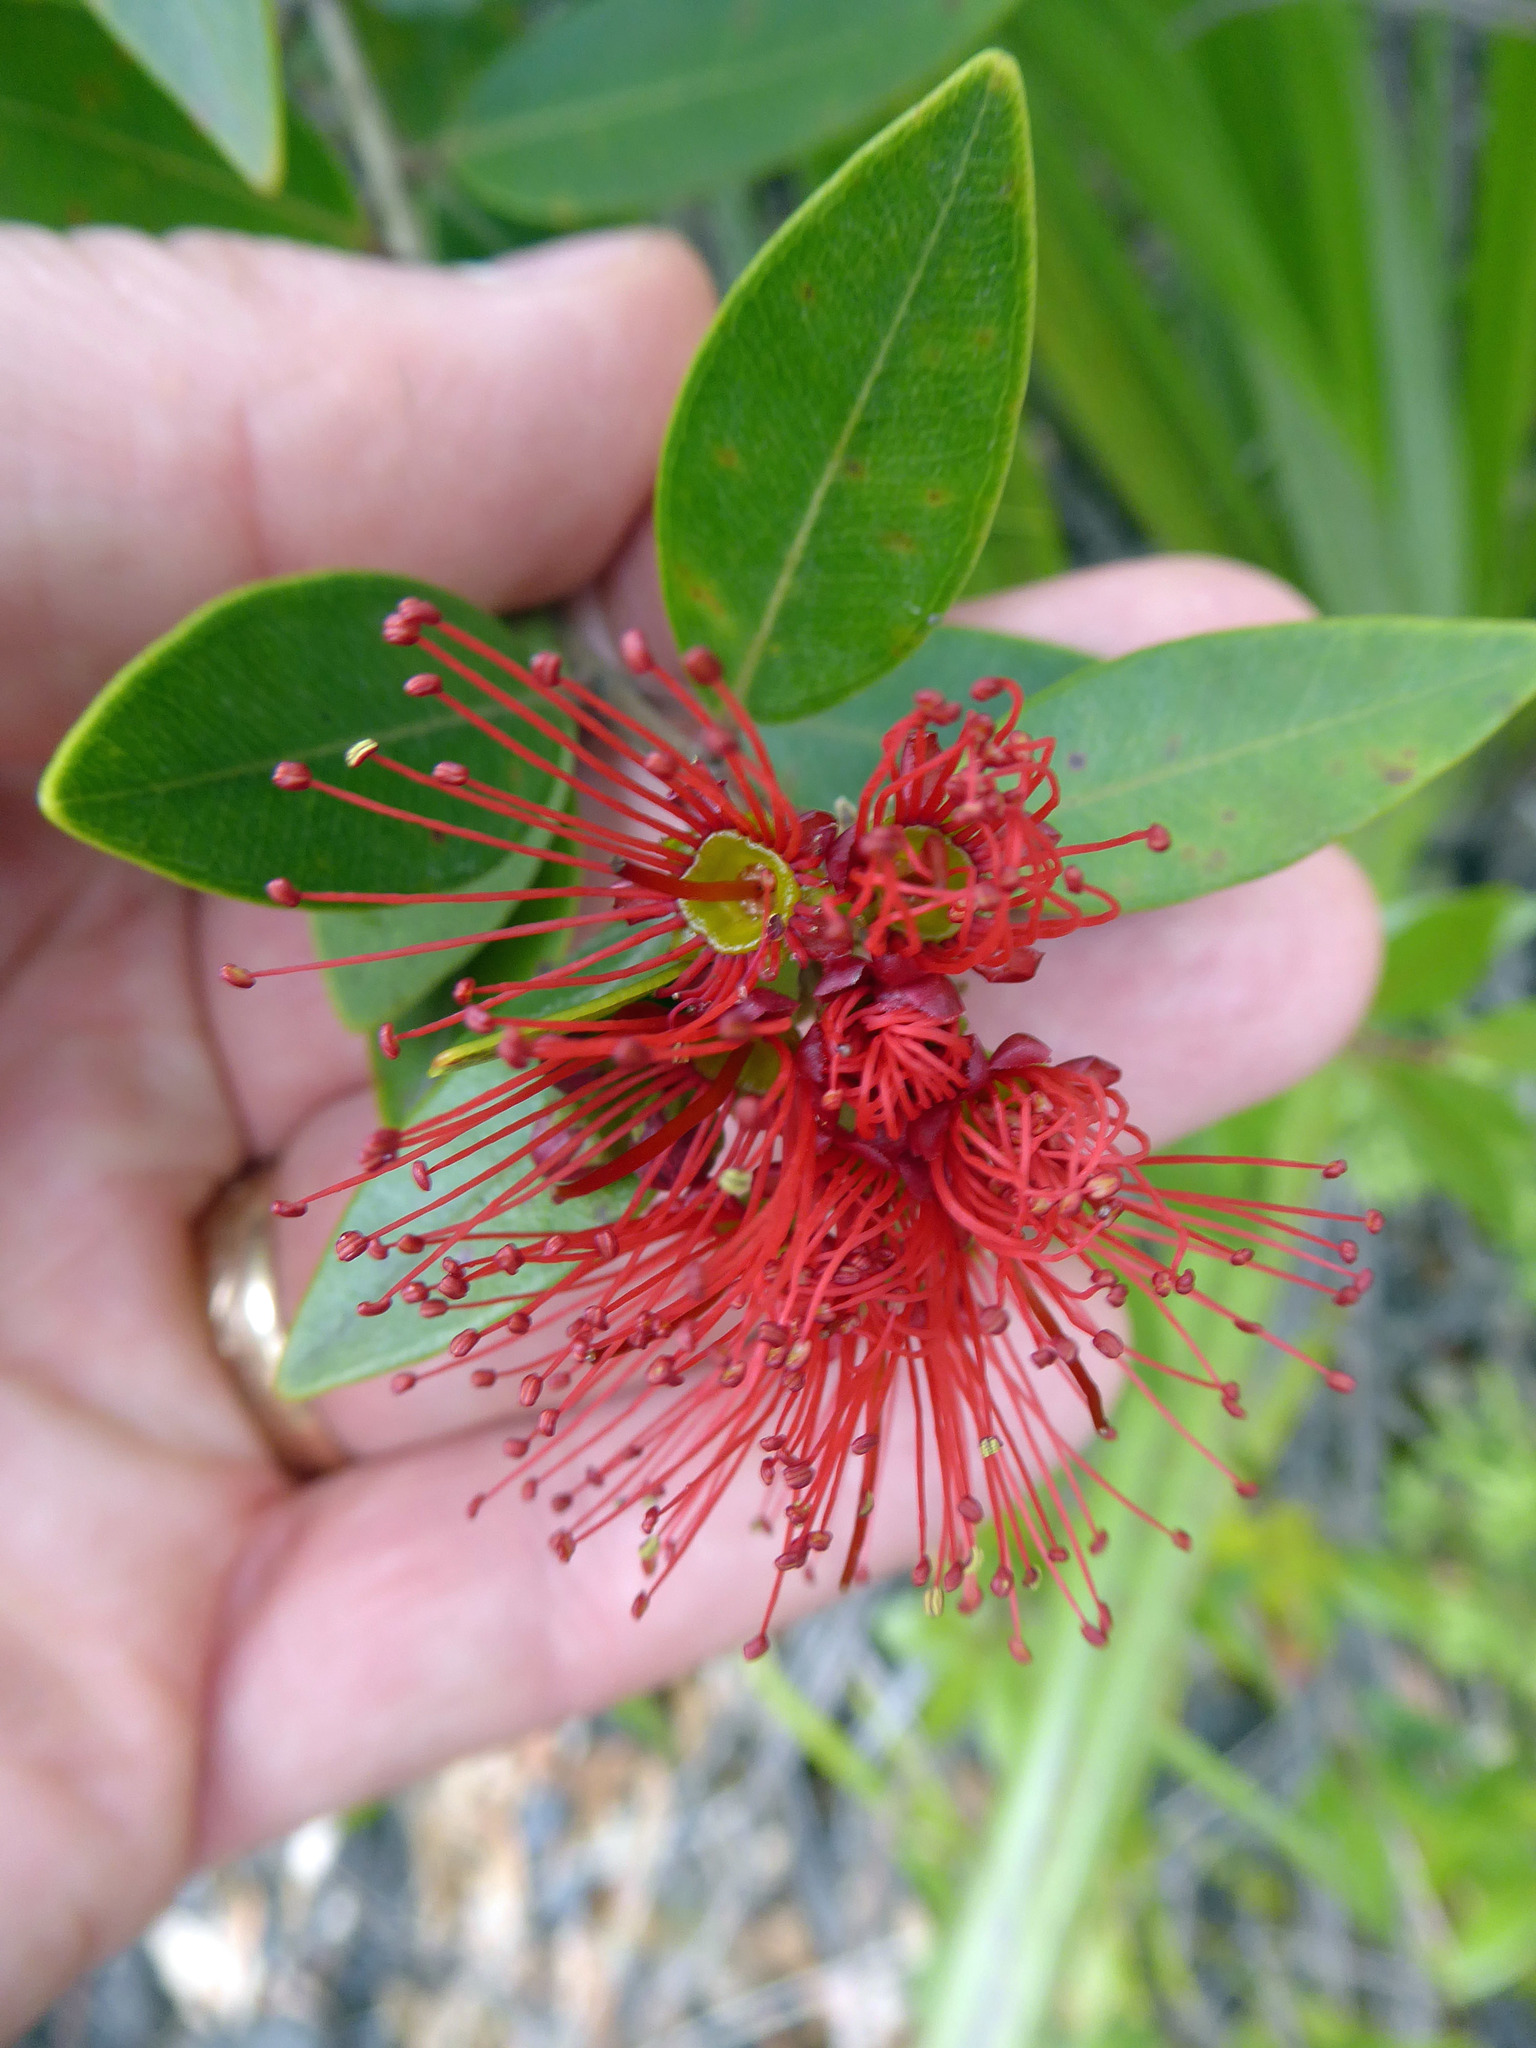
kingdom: Plantae
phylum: Tracheophyta
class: Magnoliopsida
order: Myrtales
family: Myrtaceae
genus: Metrosideros
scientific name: Metrosideros robusta
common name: Northern rata
